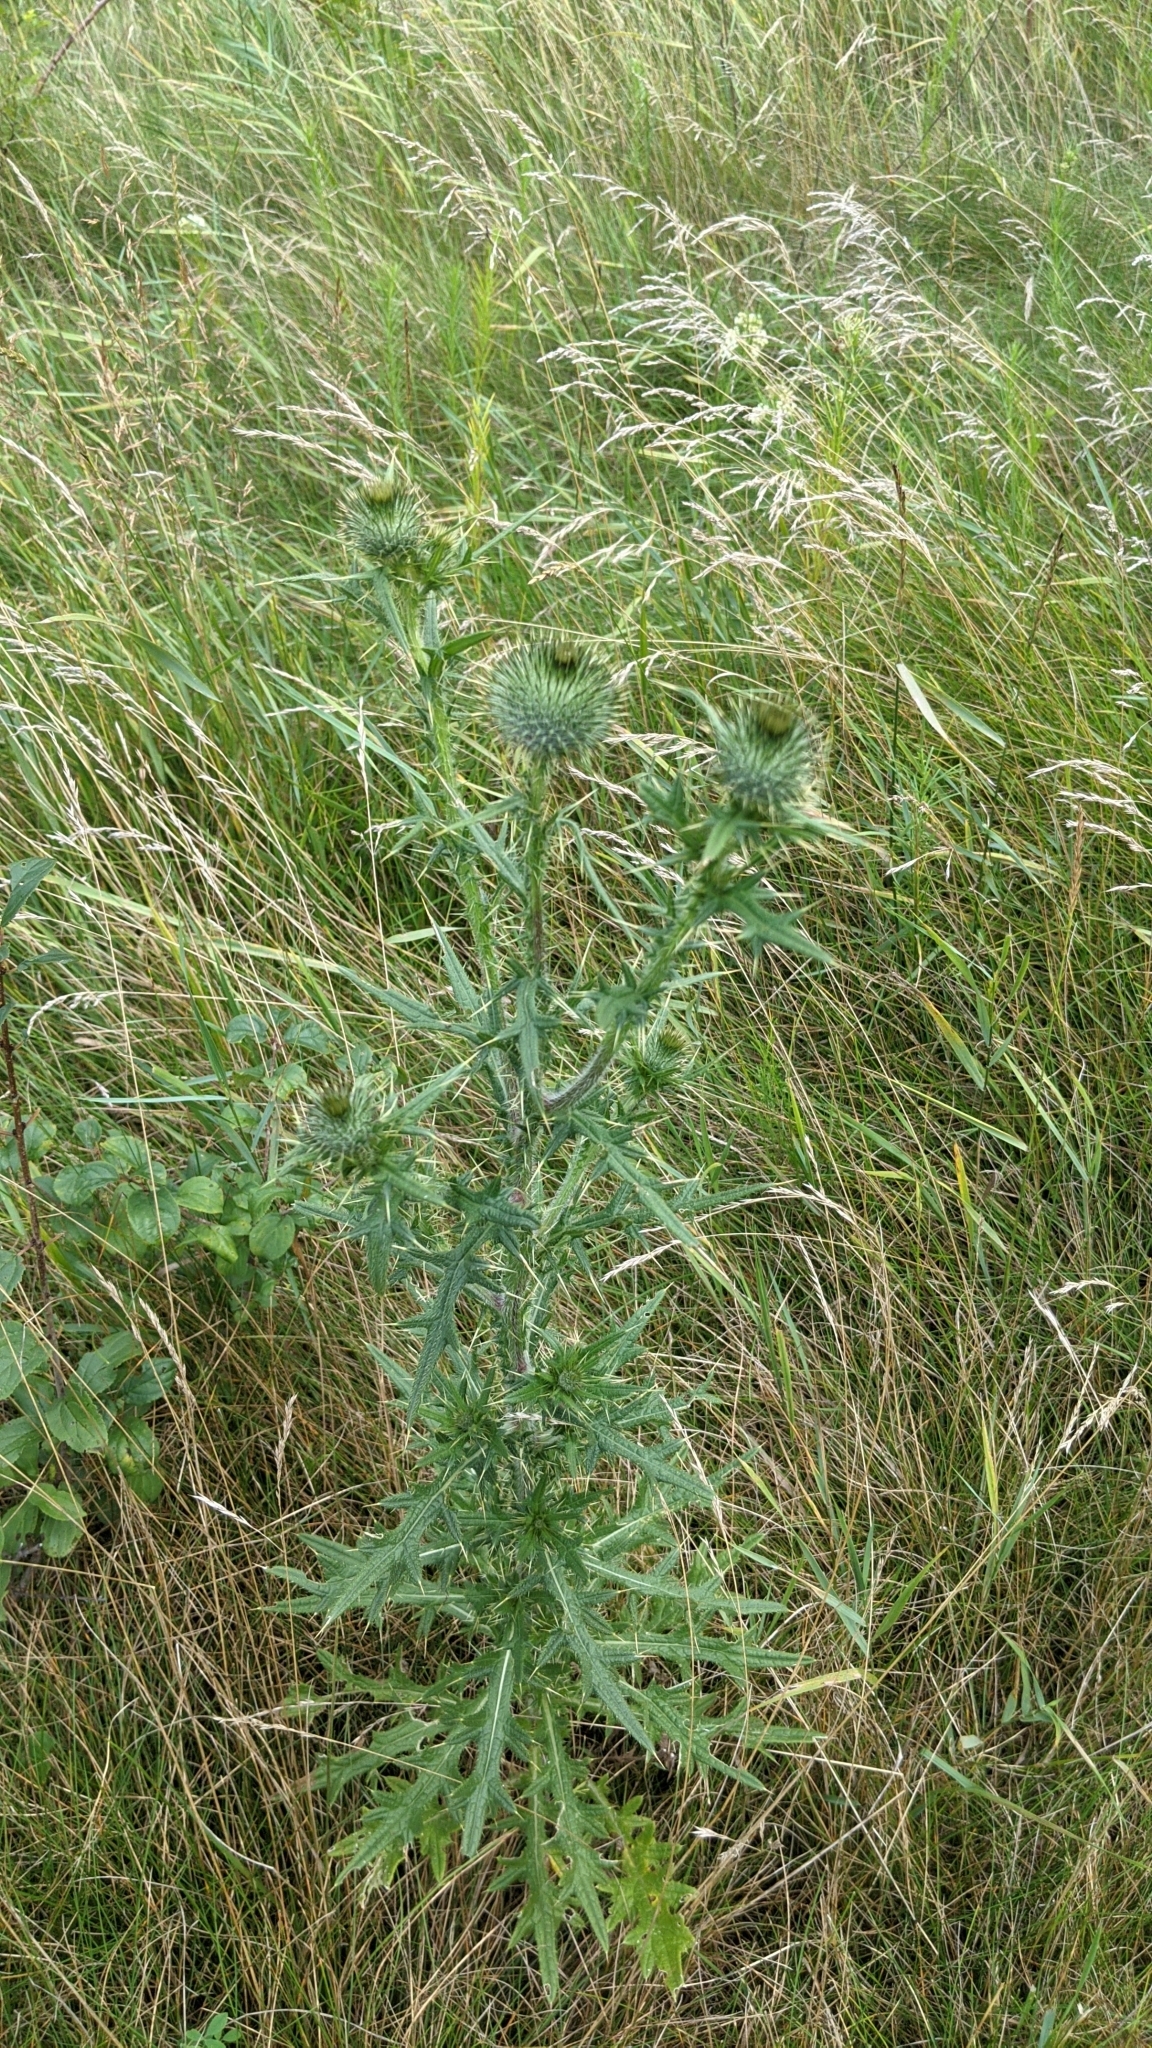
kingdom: Plantae
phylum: Tracheophyta
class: Magnoliopsida
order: Asterales
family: Asteraceae
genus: Cirsium
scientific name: Cirsium vulgare
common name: Bull thistle
